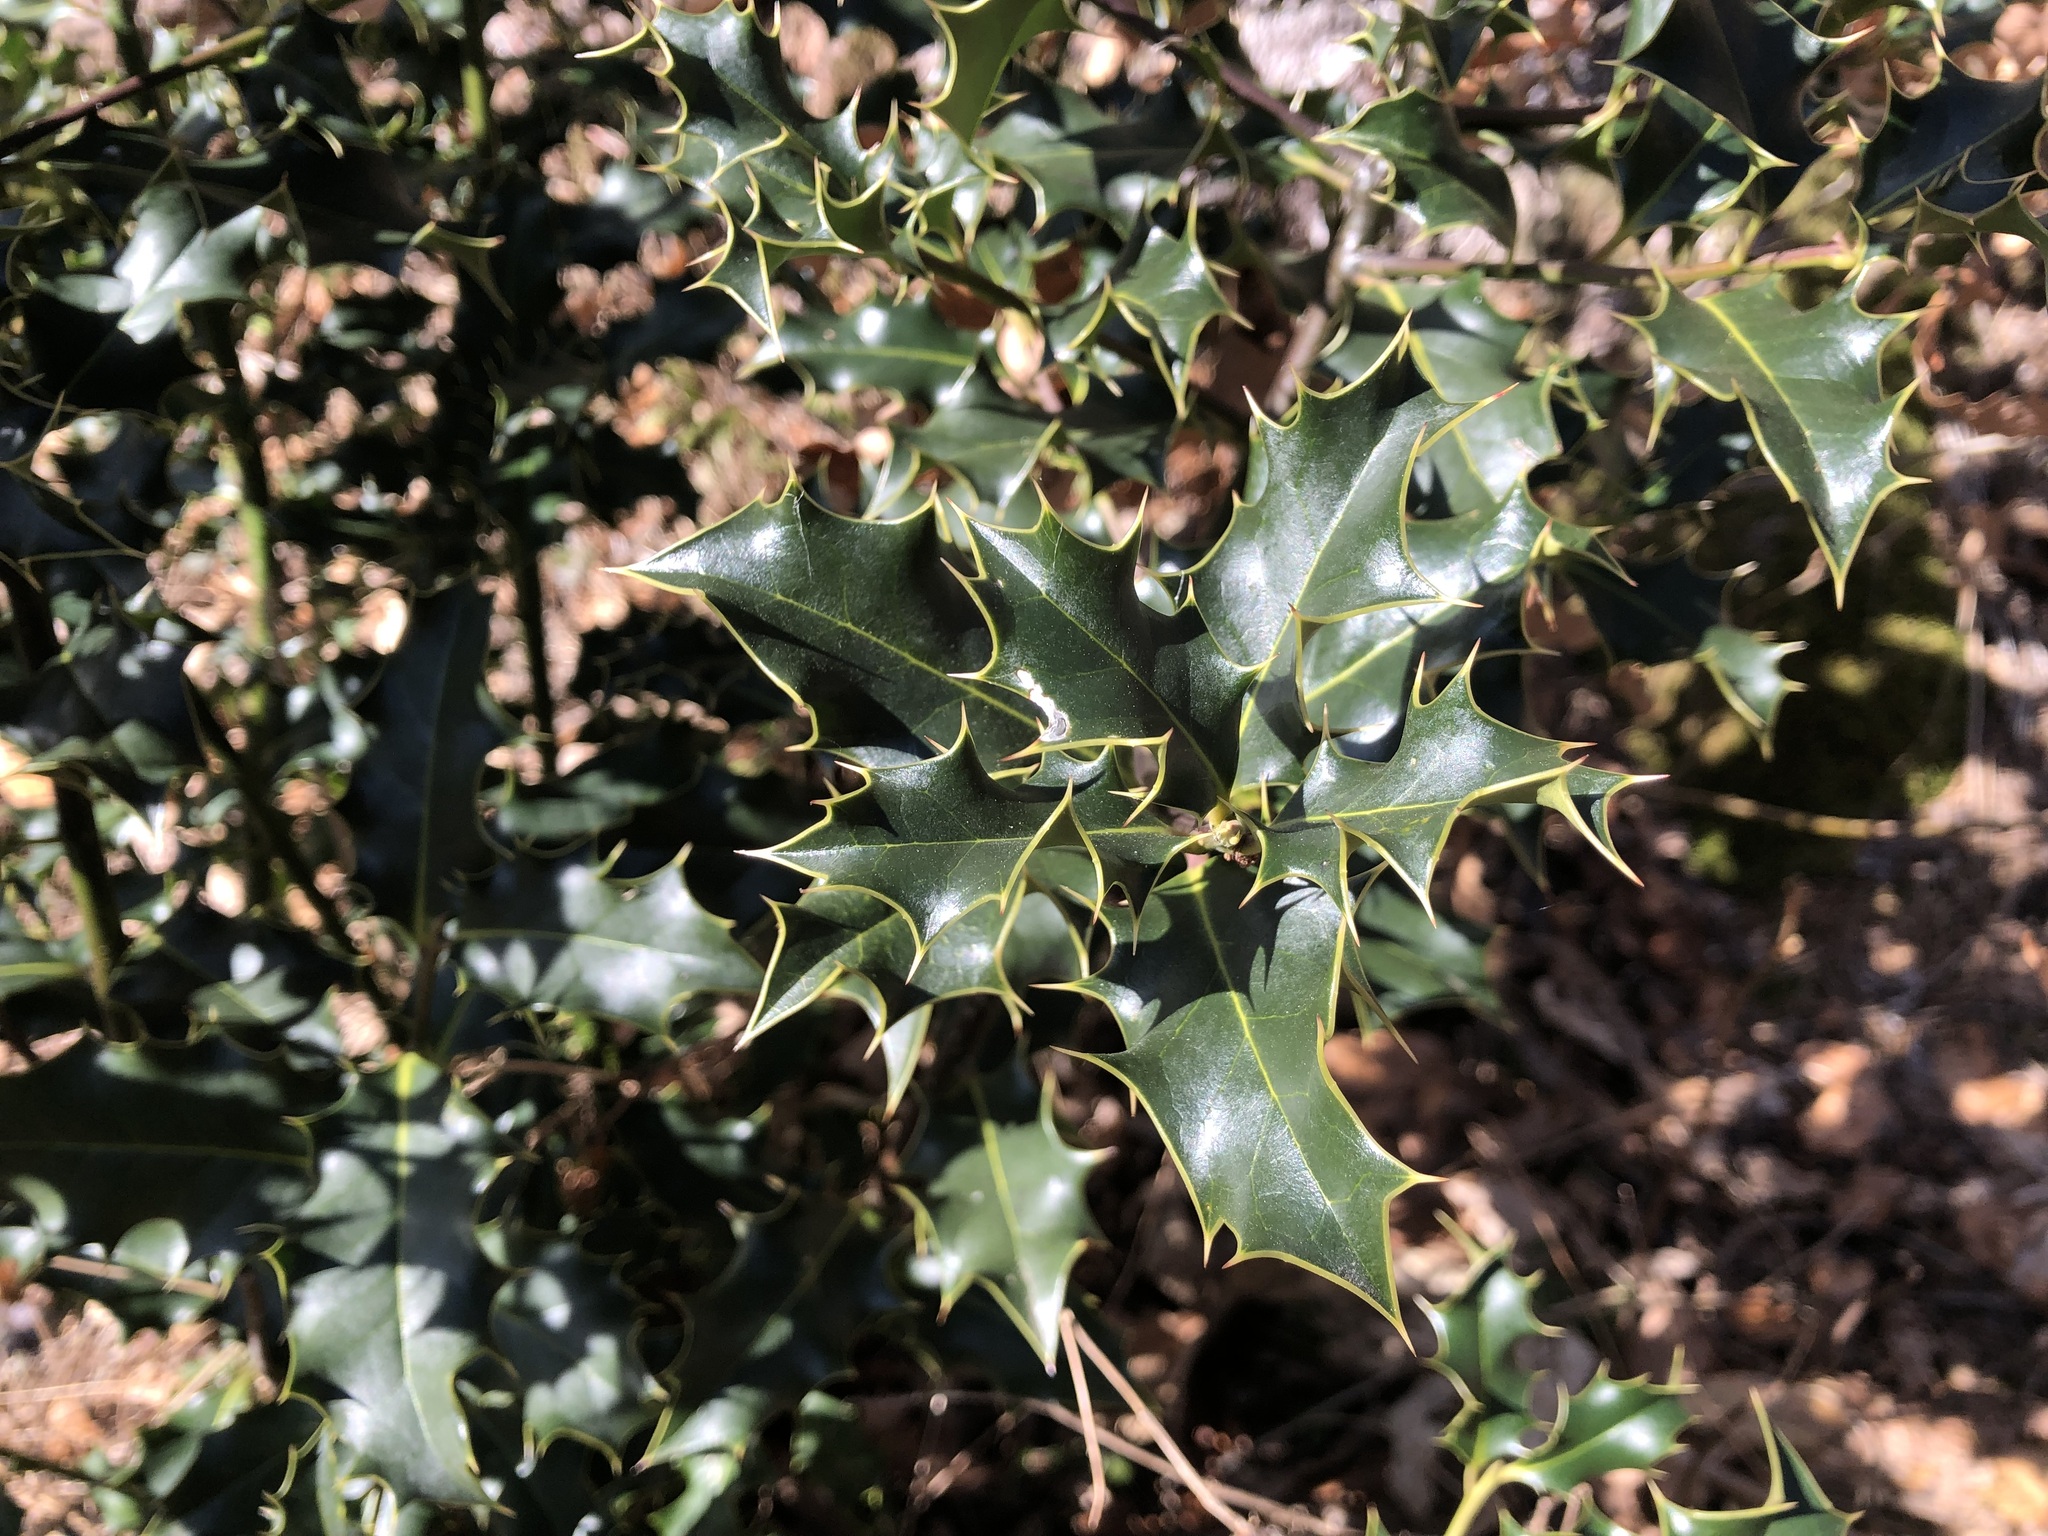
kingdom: Plantae
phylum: Tracheophyta
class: Magnoliopsida
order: Aquifoliales
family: Aquifoliaceae
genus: Ilex
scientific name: Ilex aquifolium
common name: English holly
